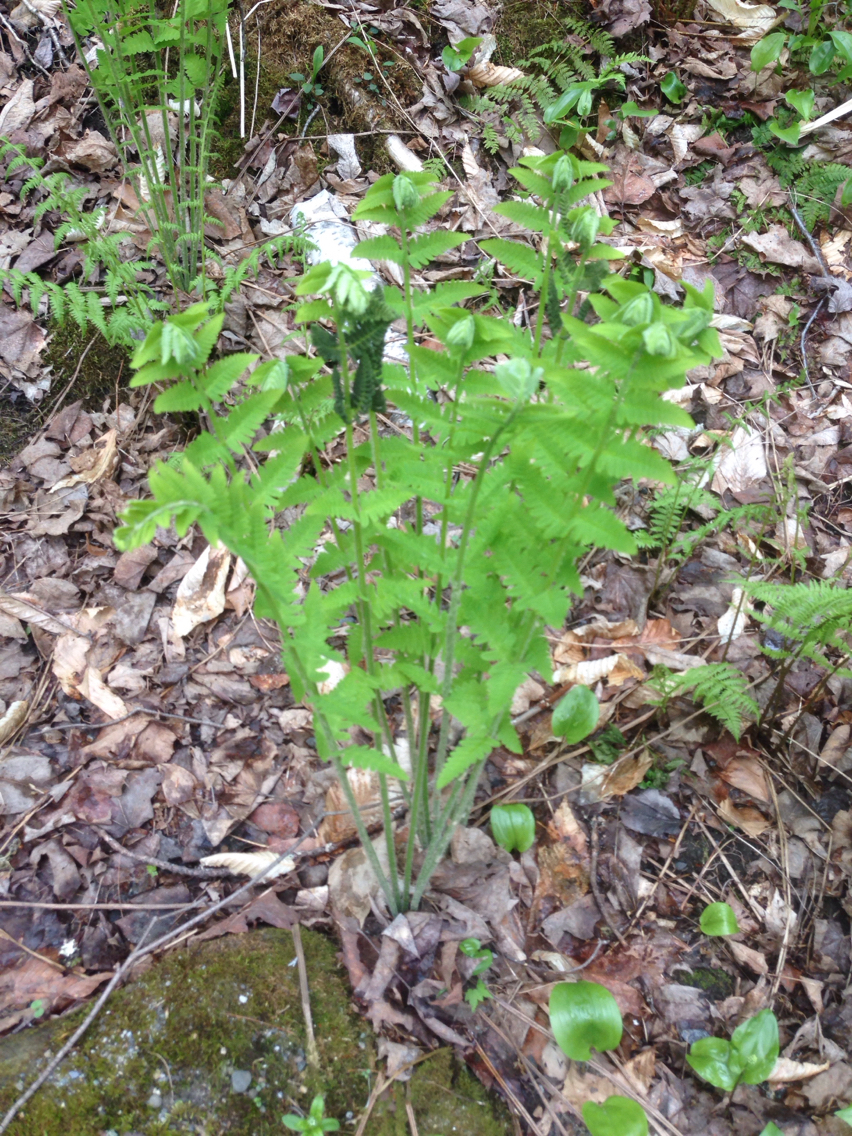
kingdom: Plantae
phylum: Tracheophyta
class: Polypodiopsida
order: Osmundales
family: Osmundaceae
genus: Claytosmunda
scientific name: Claytosmunda claytoniana
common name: Clayton's fern
